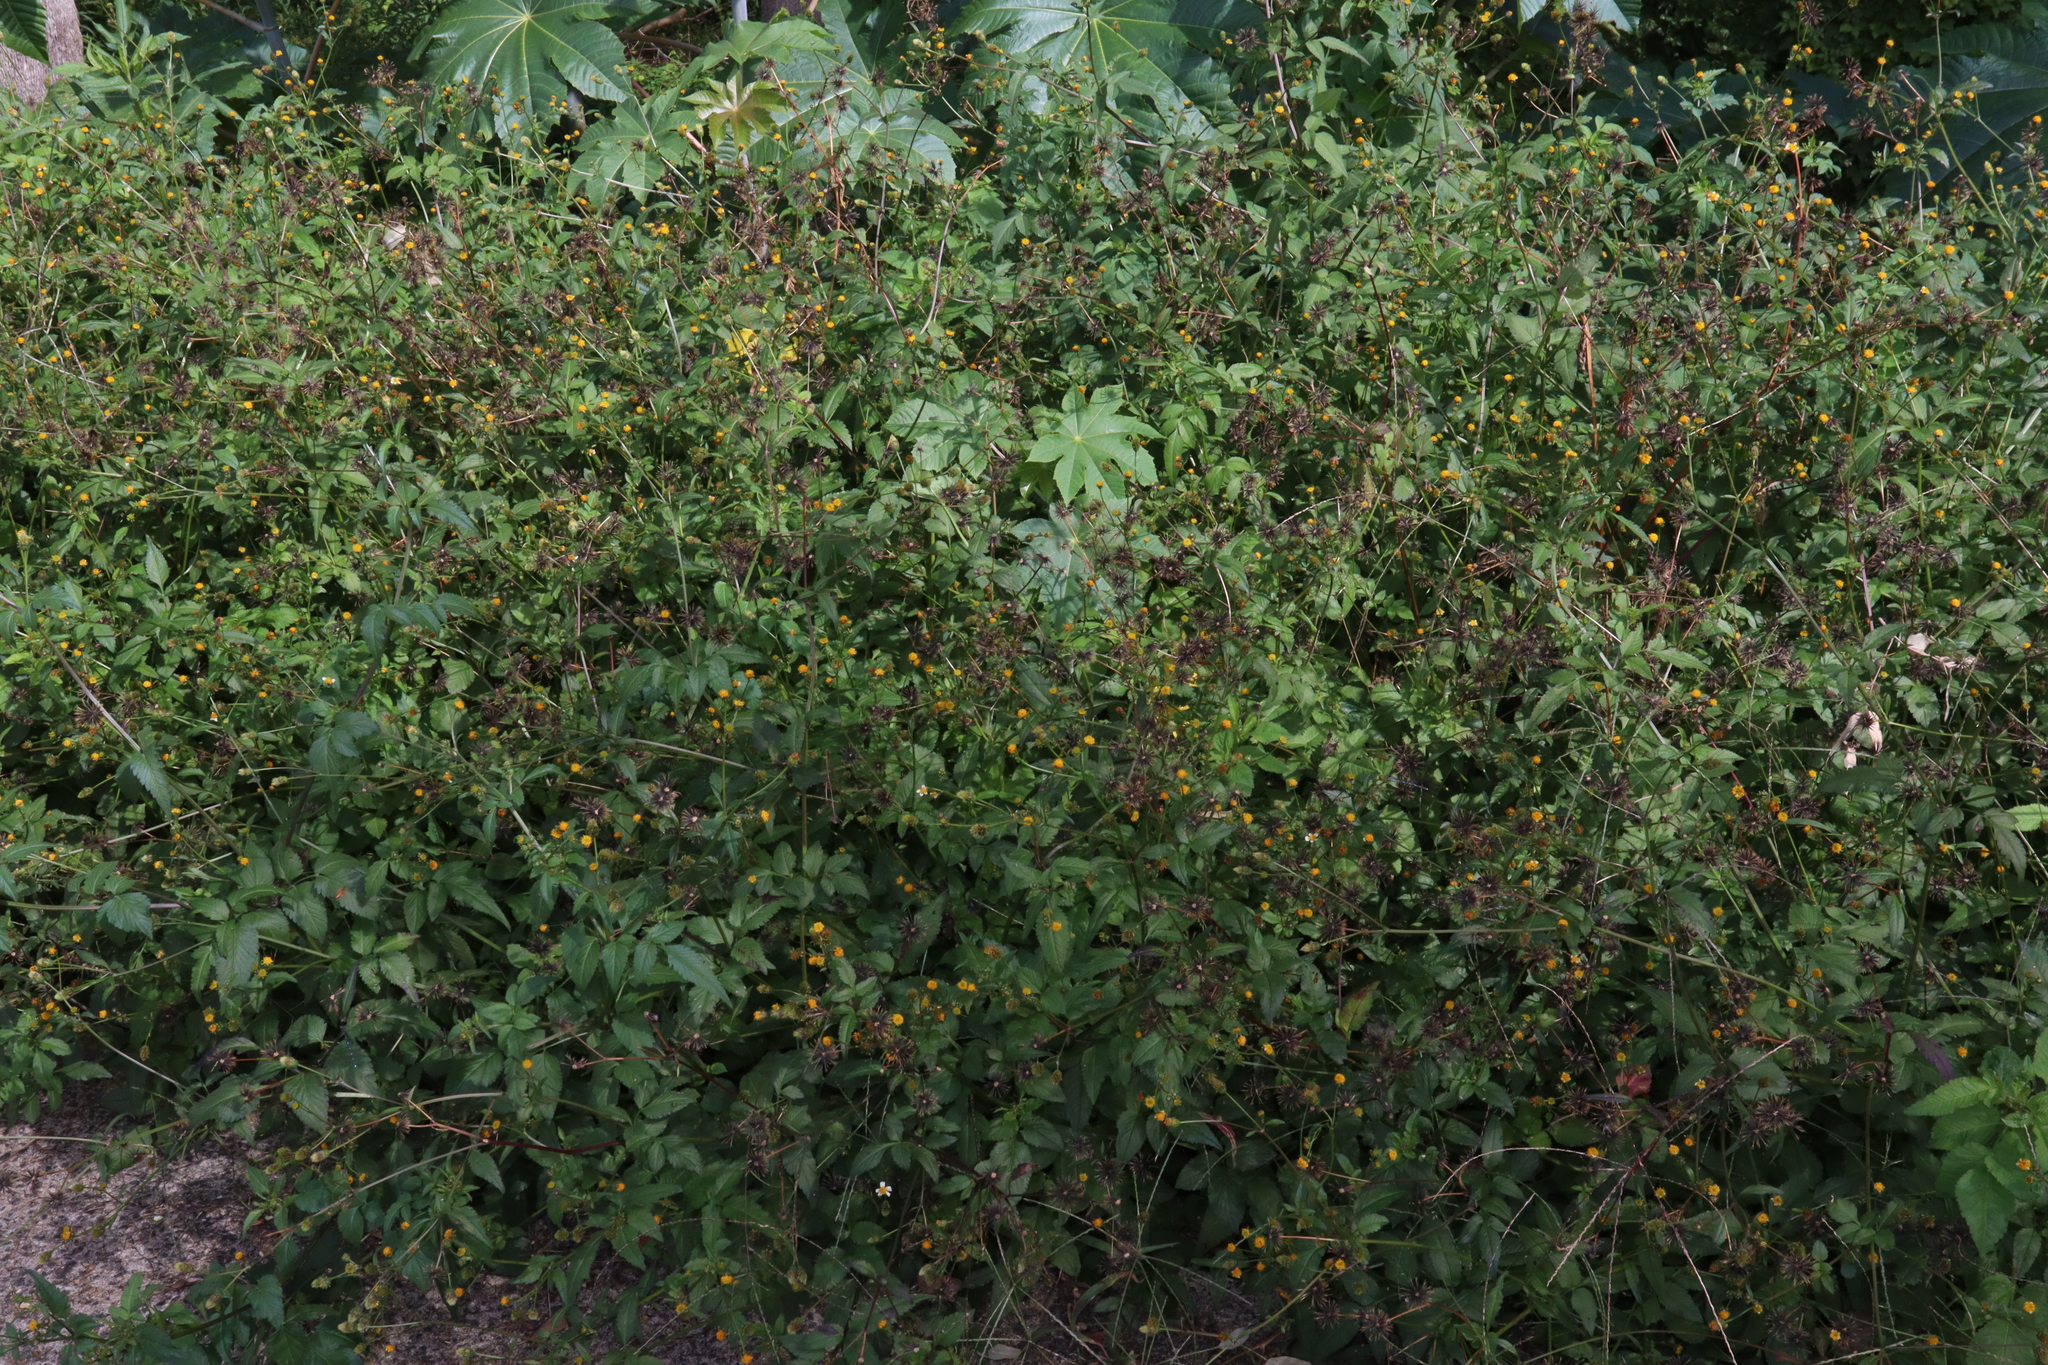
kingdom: Plantae
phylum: Tracheophyta
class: Magnoliopsida
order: Asterales
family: Asteraceae
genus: Bidens
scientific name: Bidens pilosa
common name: Black-jack
